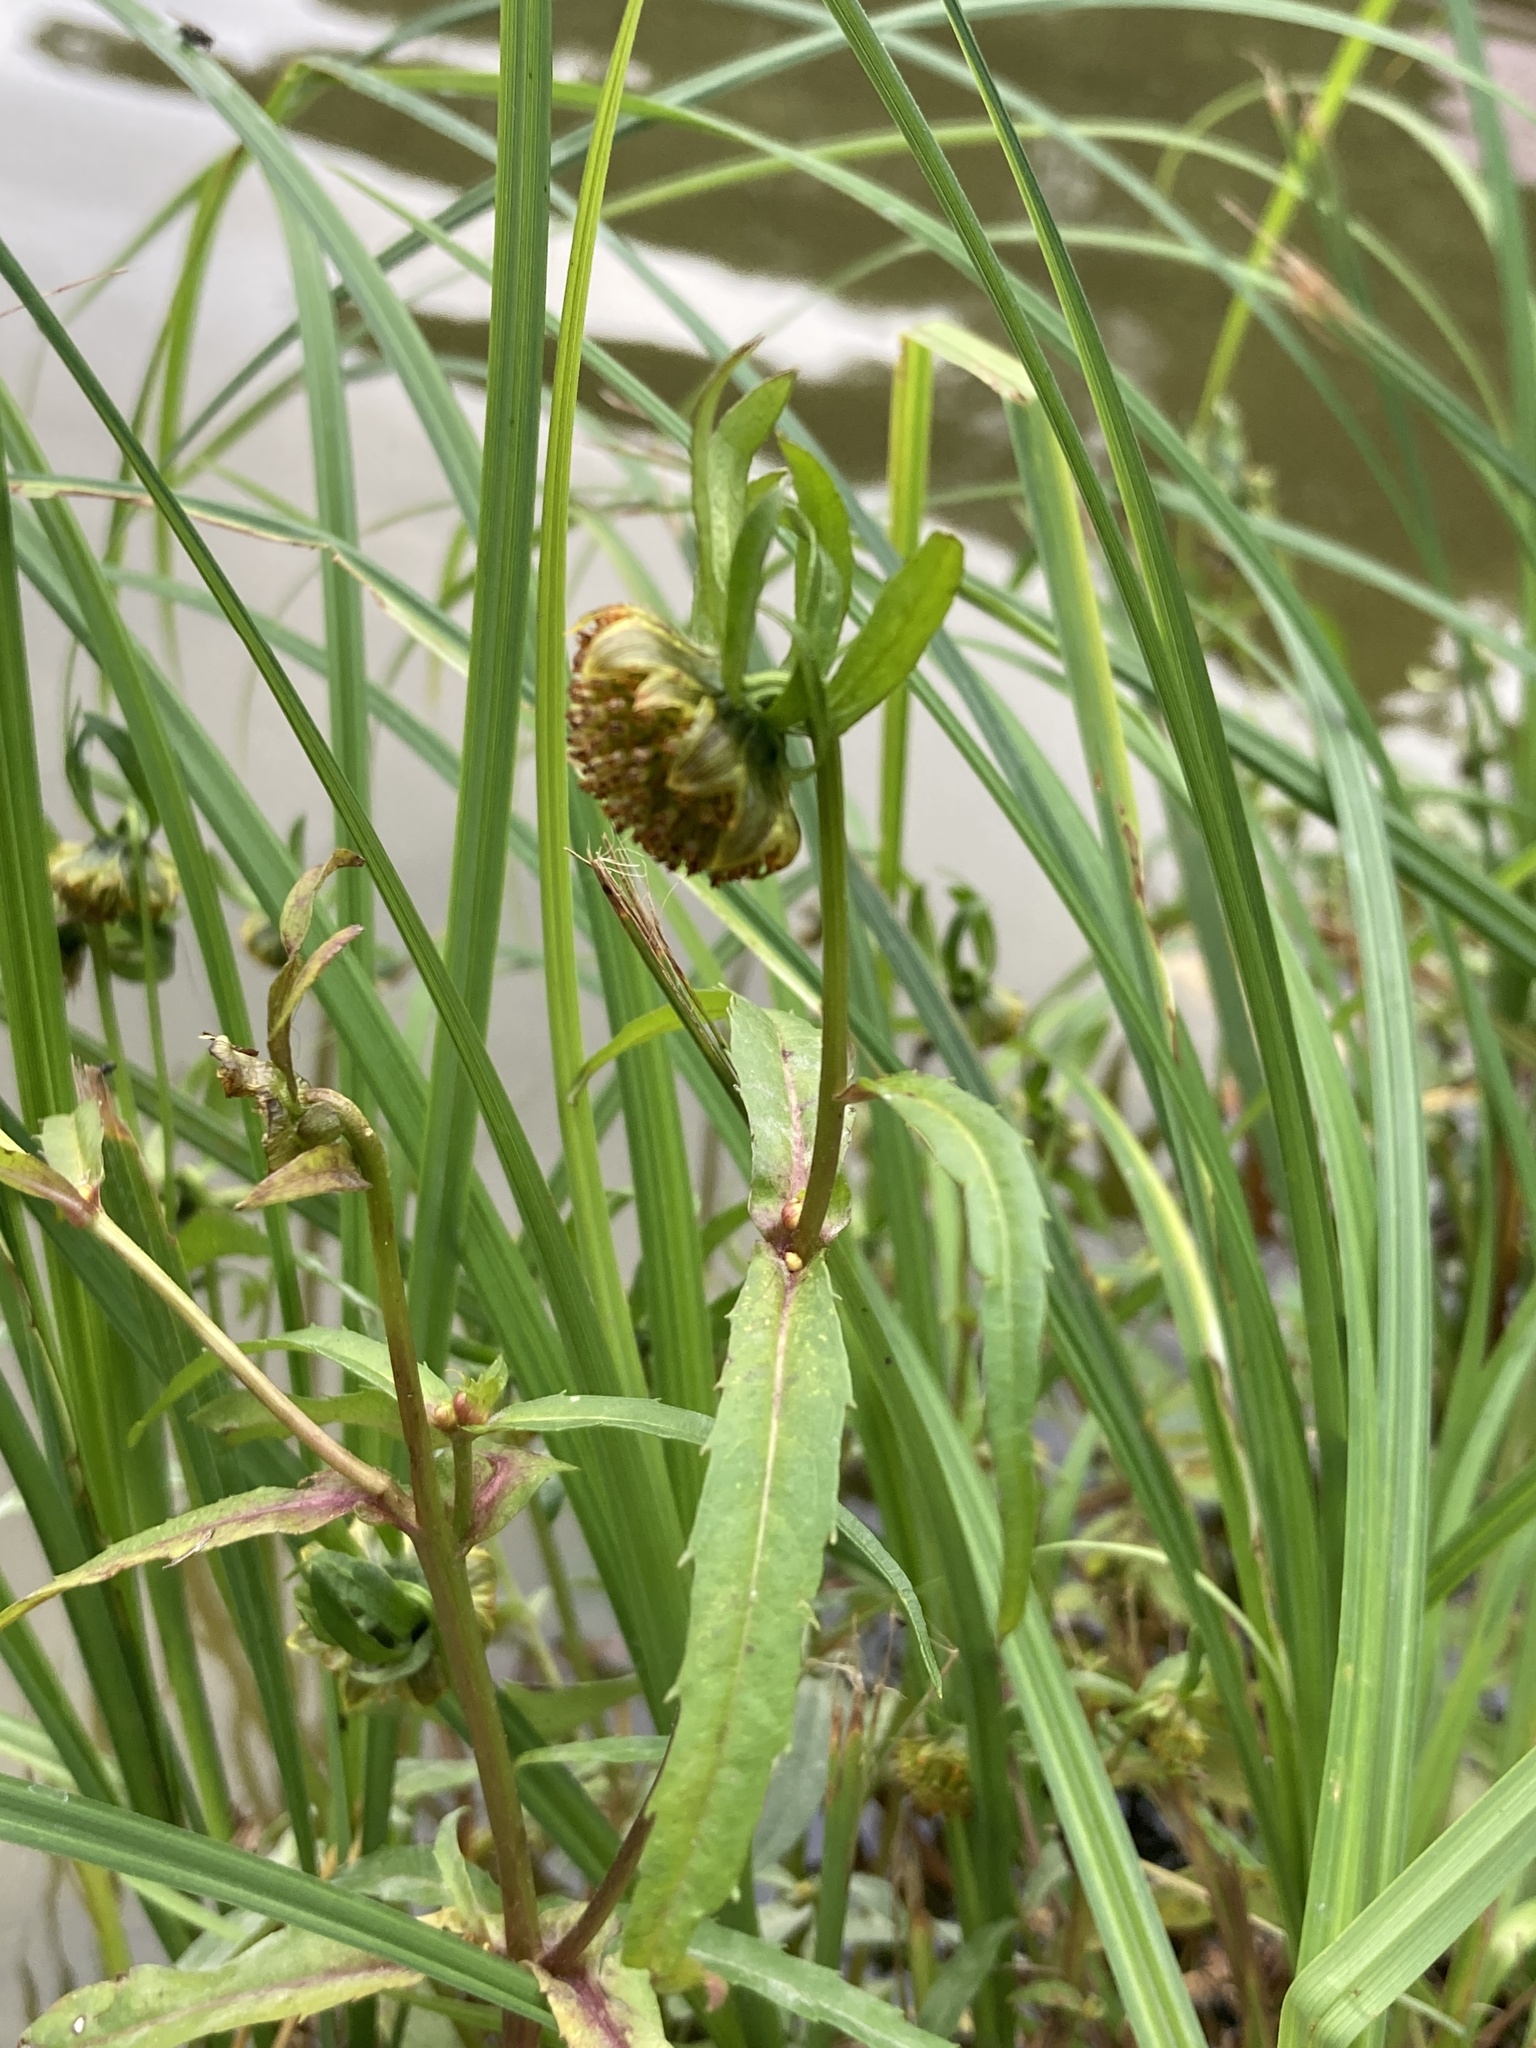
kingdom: Plantae
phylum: Tracheophyta
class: Magnoliopsida
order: Asterales
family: Asteraceae
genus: Bidens
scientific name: Bidens cernua
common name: Nodding bur-marigold
